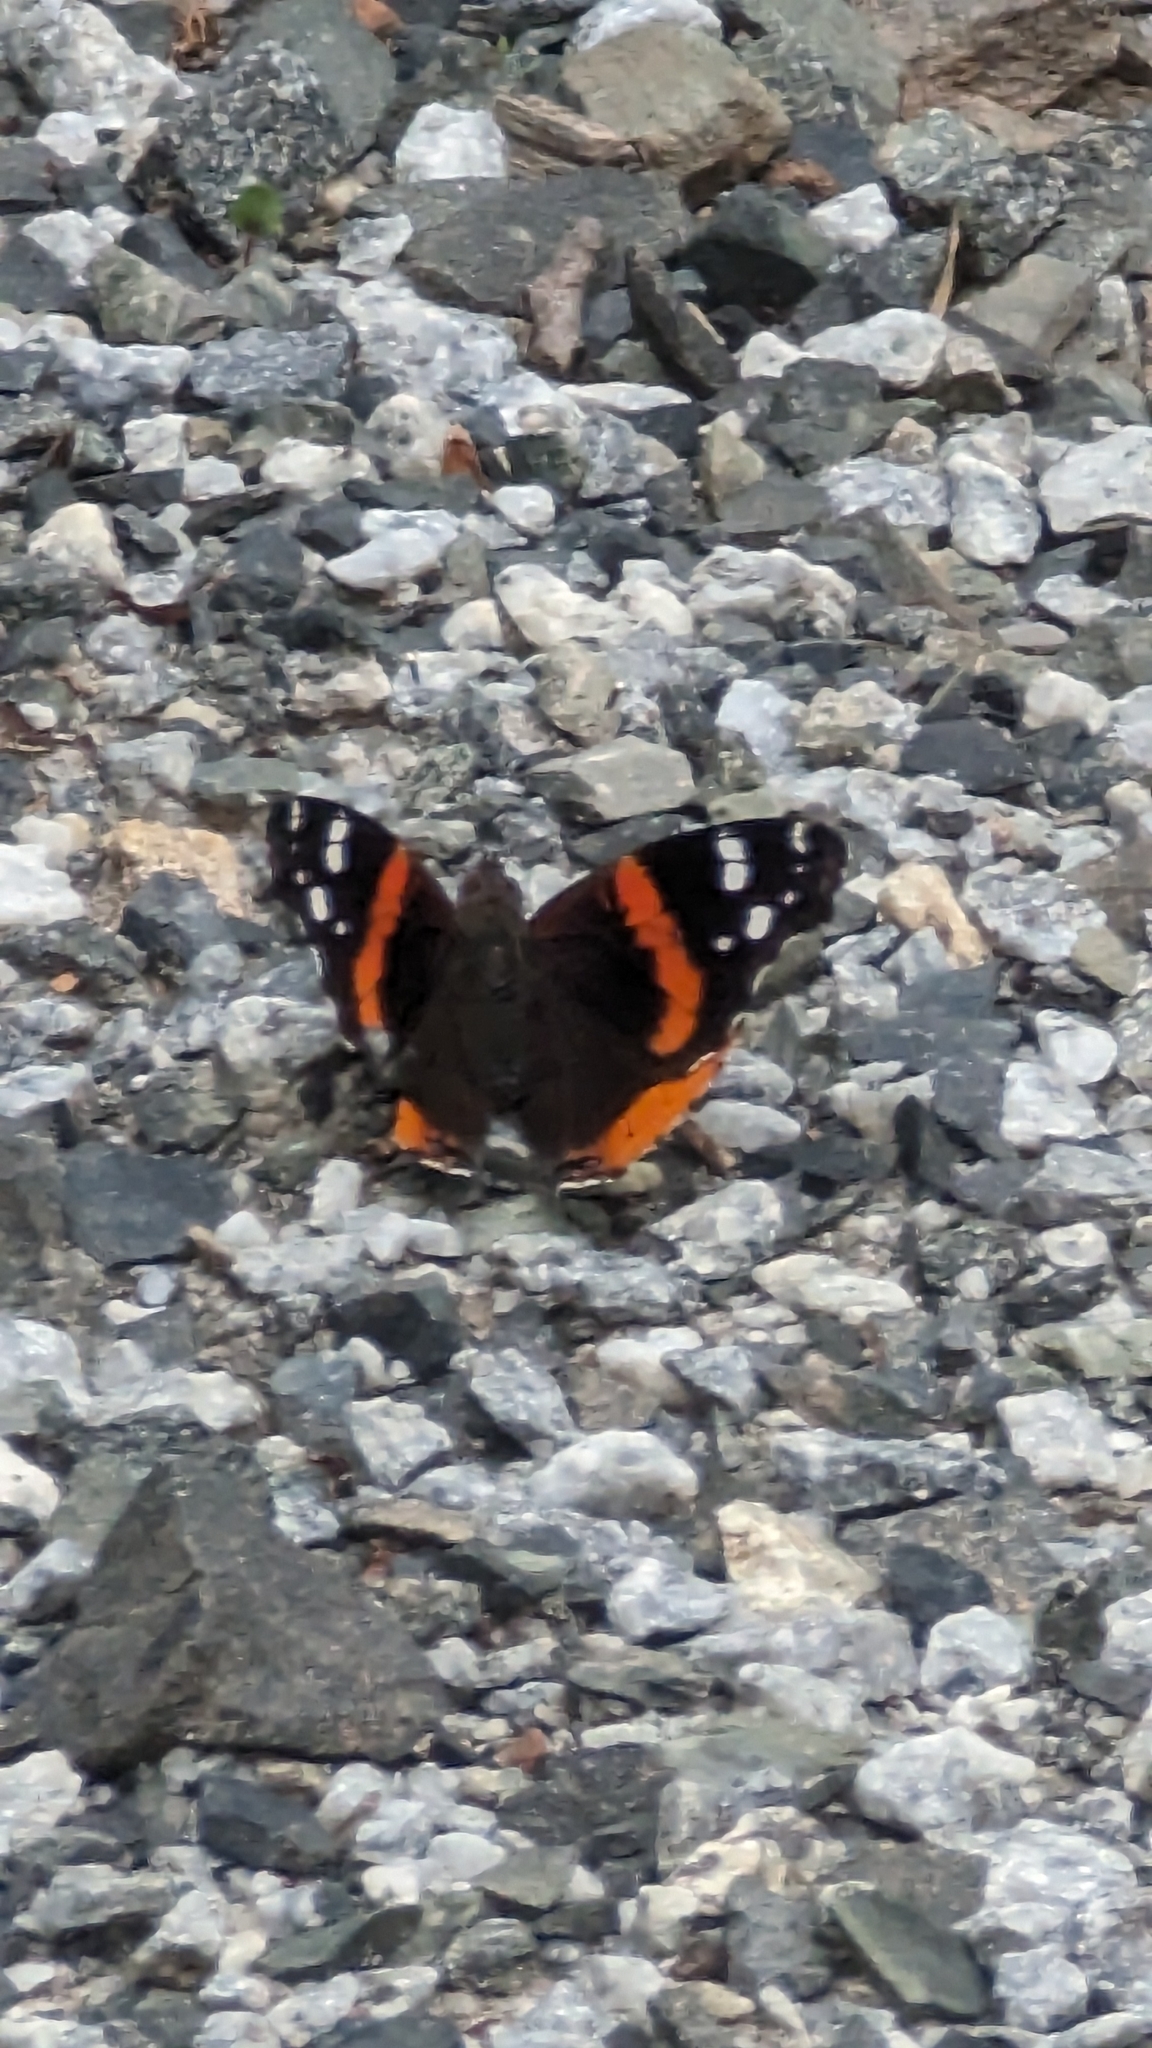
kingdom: Animalia
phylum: Arthropoda
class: Insecta
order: Lepidoptera
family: Nymphalidae
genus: Vanessa
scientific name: Vanessa atalanta
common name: Red admiral
